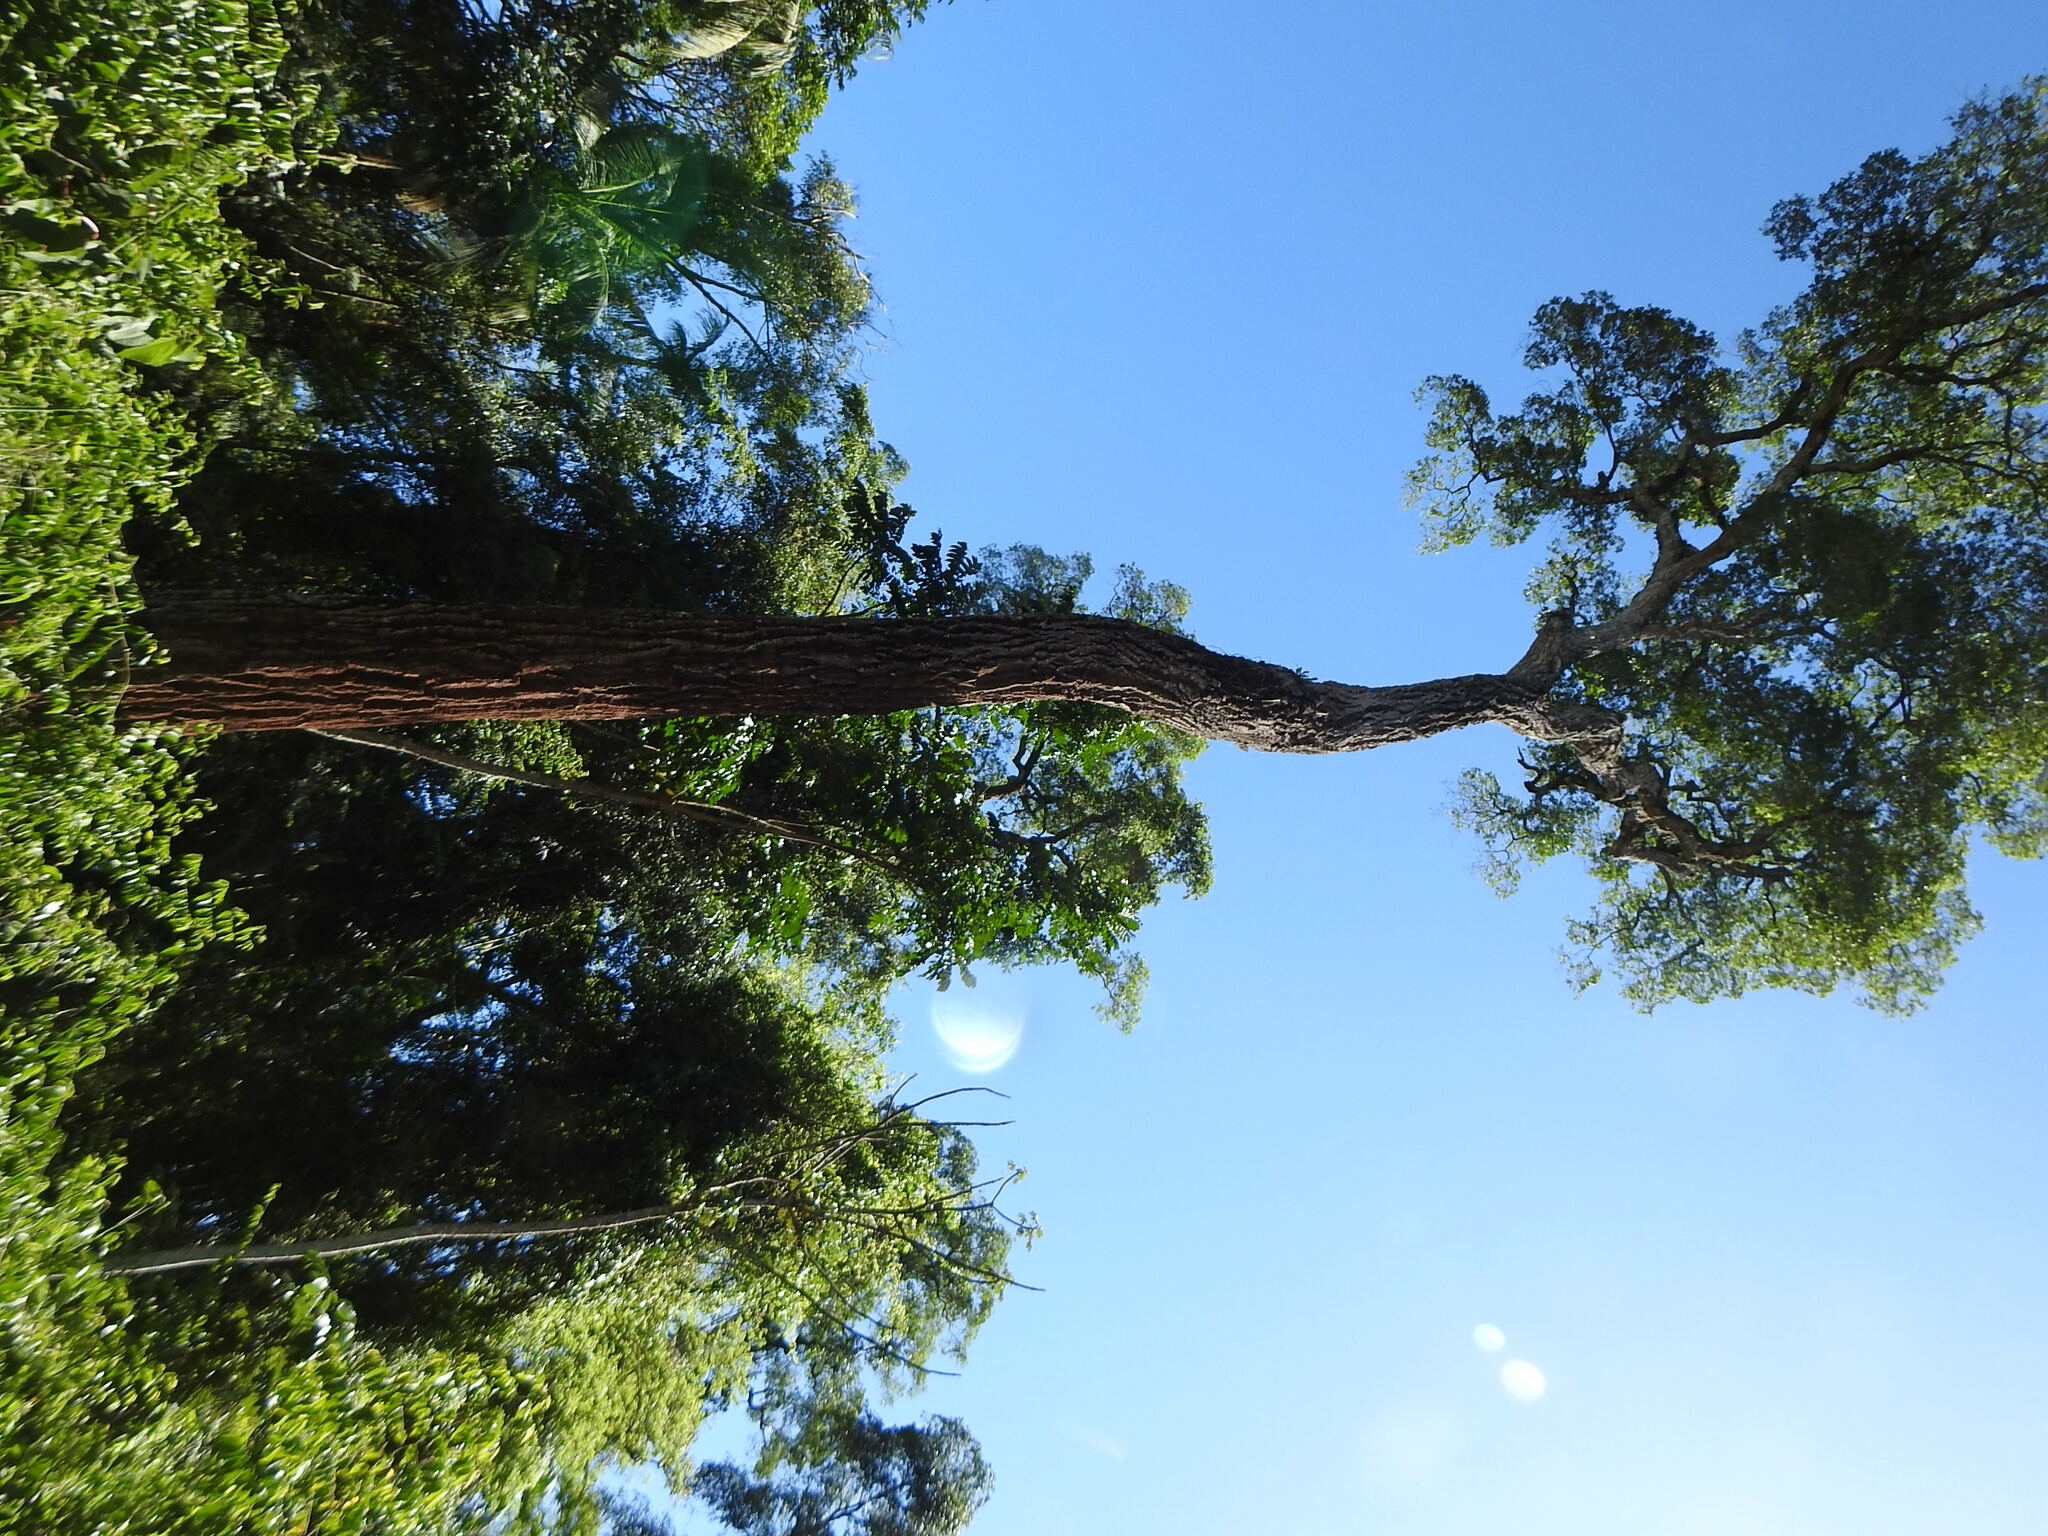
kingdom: Plantae
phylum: Tracheophyta
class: Magnoliopsida
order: Gentianales
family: Apocynaceae
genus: Aspidosperma
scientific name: Aspidosperma polyneuron
